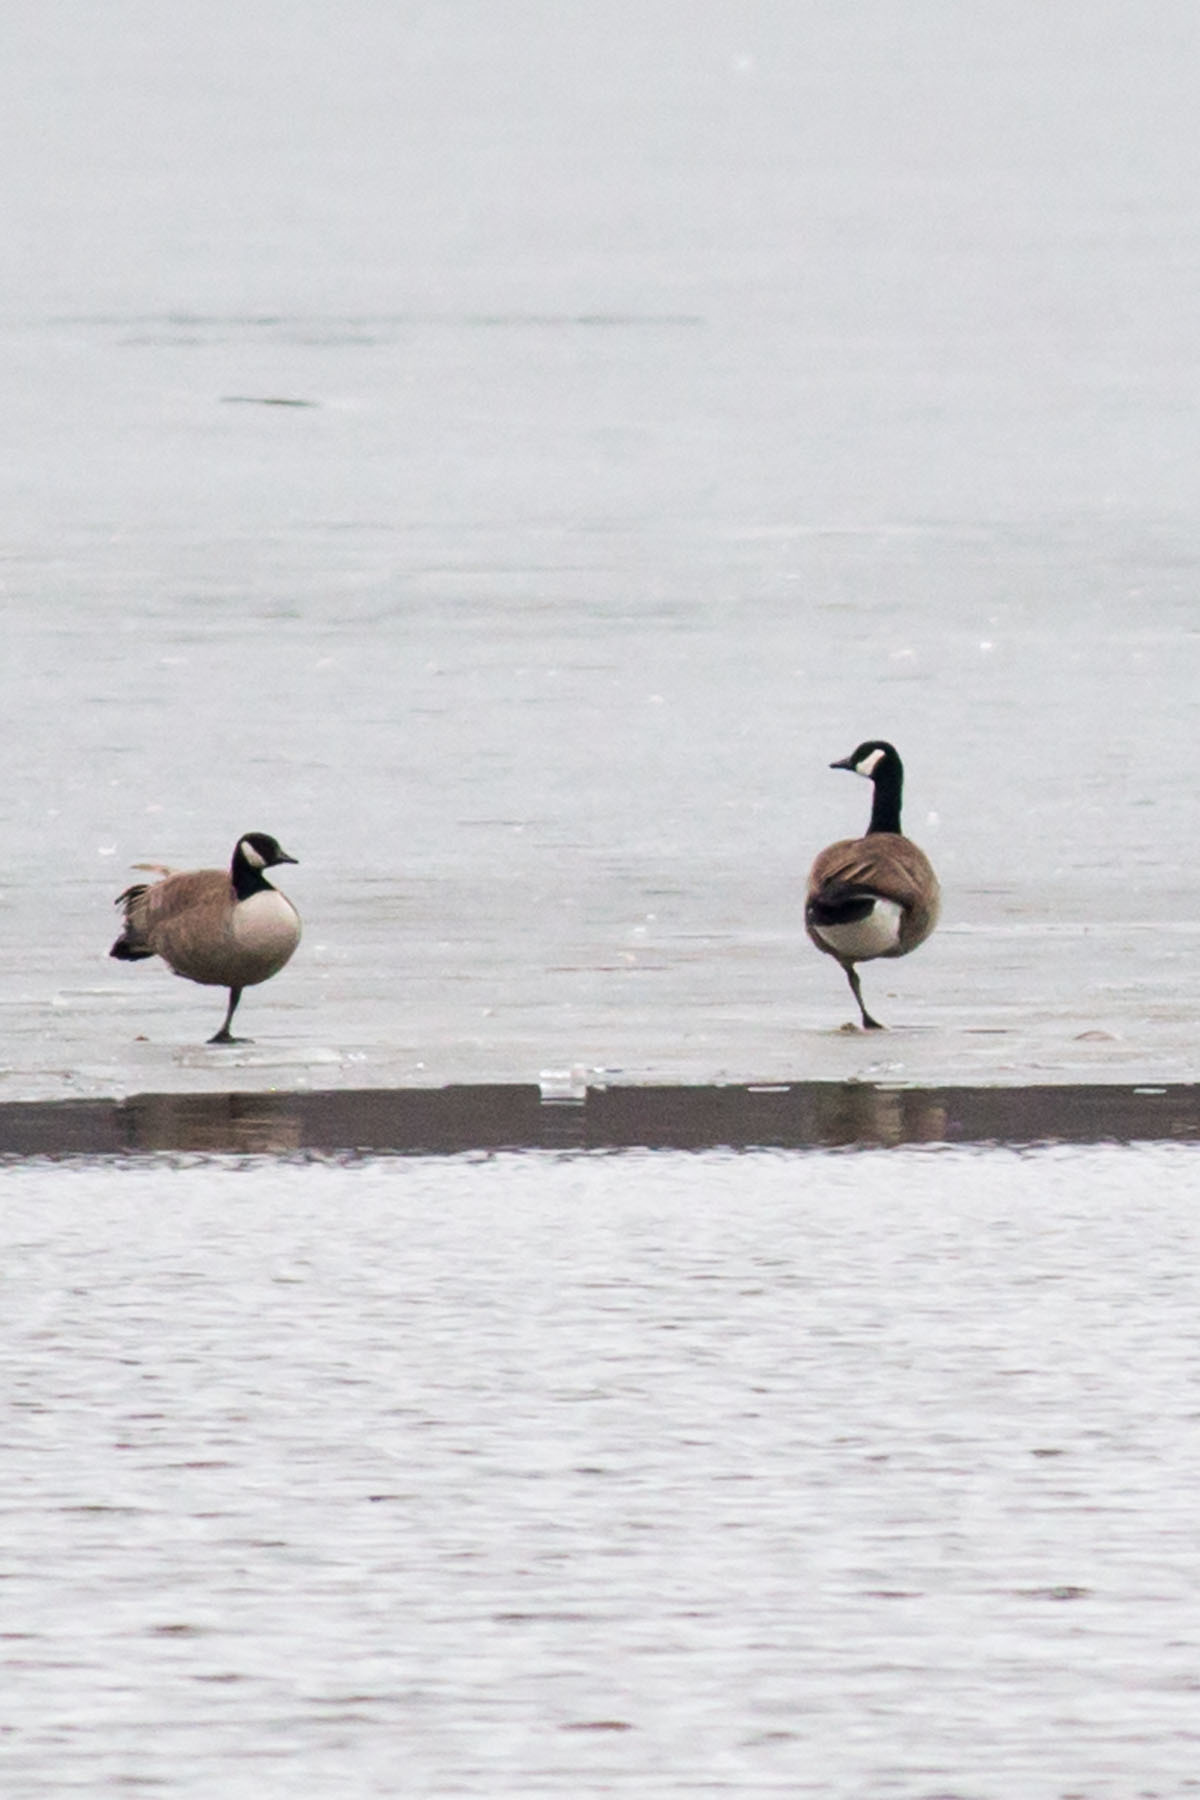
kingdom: Animalia
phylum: Chordata
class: Aves
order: Anseriformes
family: Anatidae
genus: Branta
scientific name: Branta canadensis
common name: Canada goose
